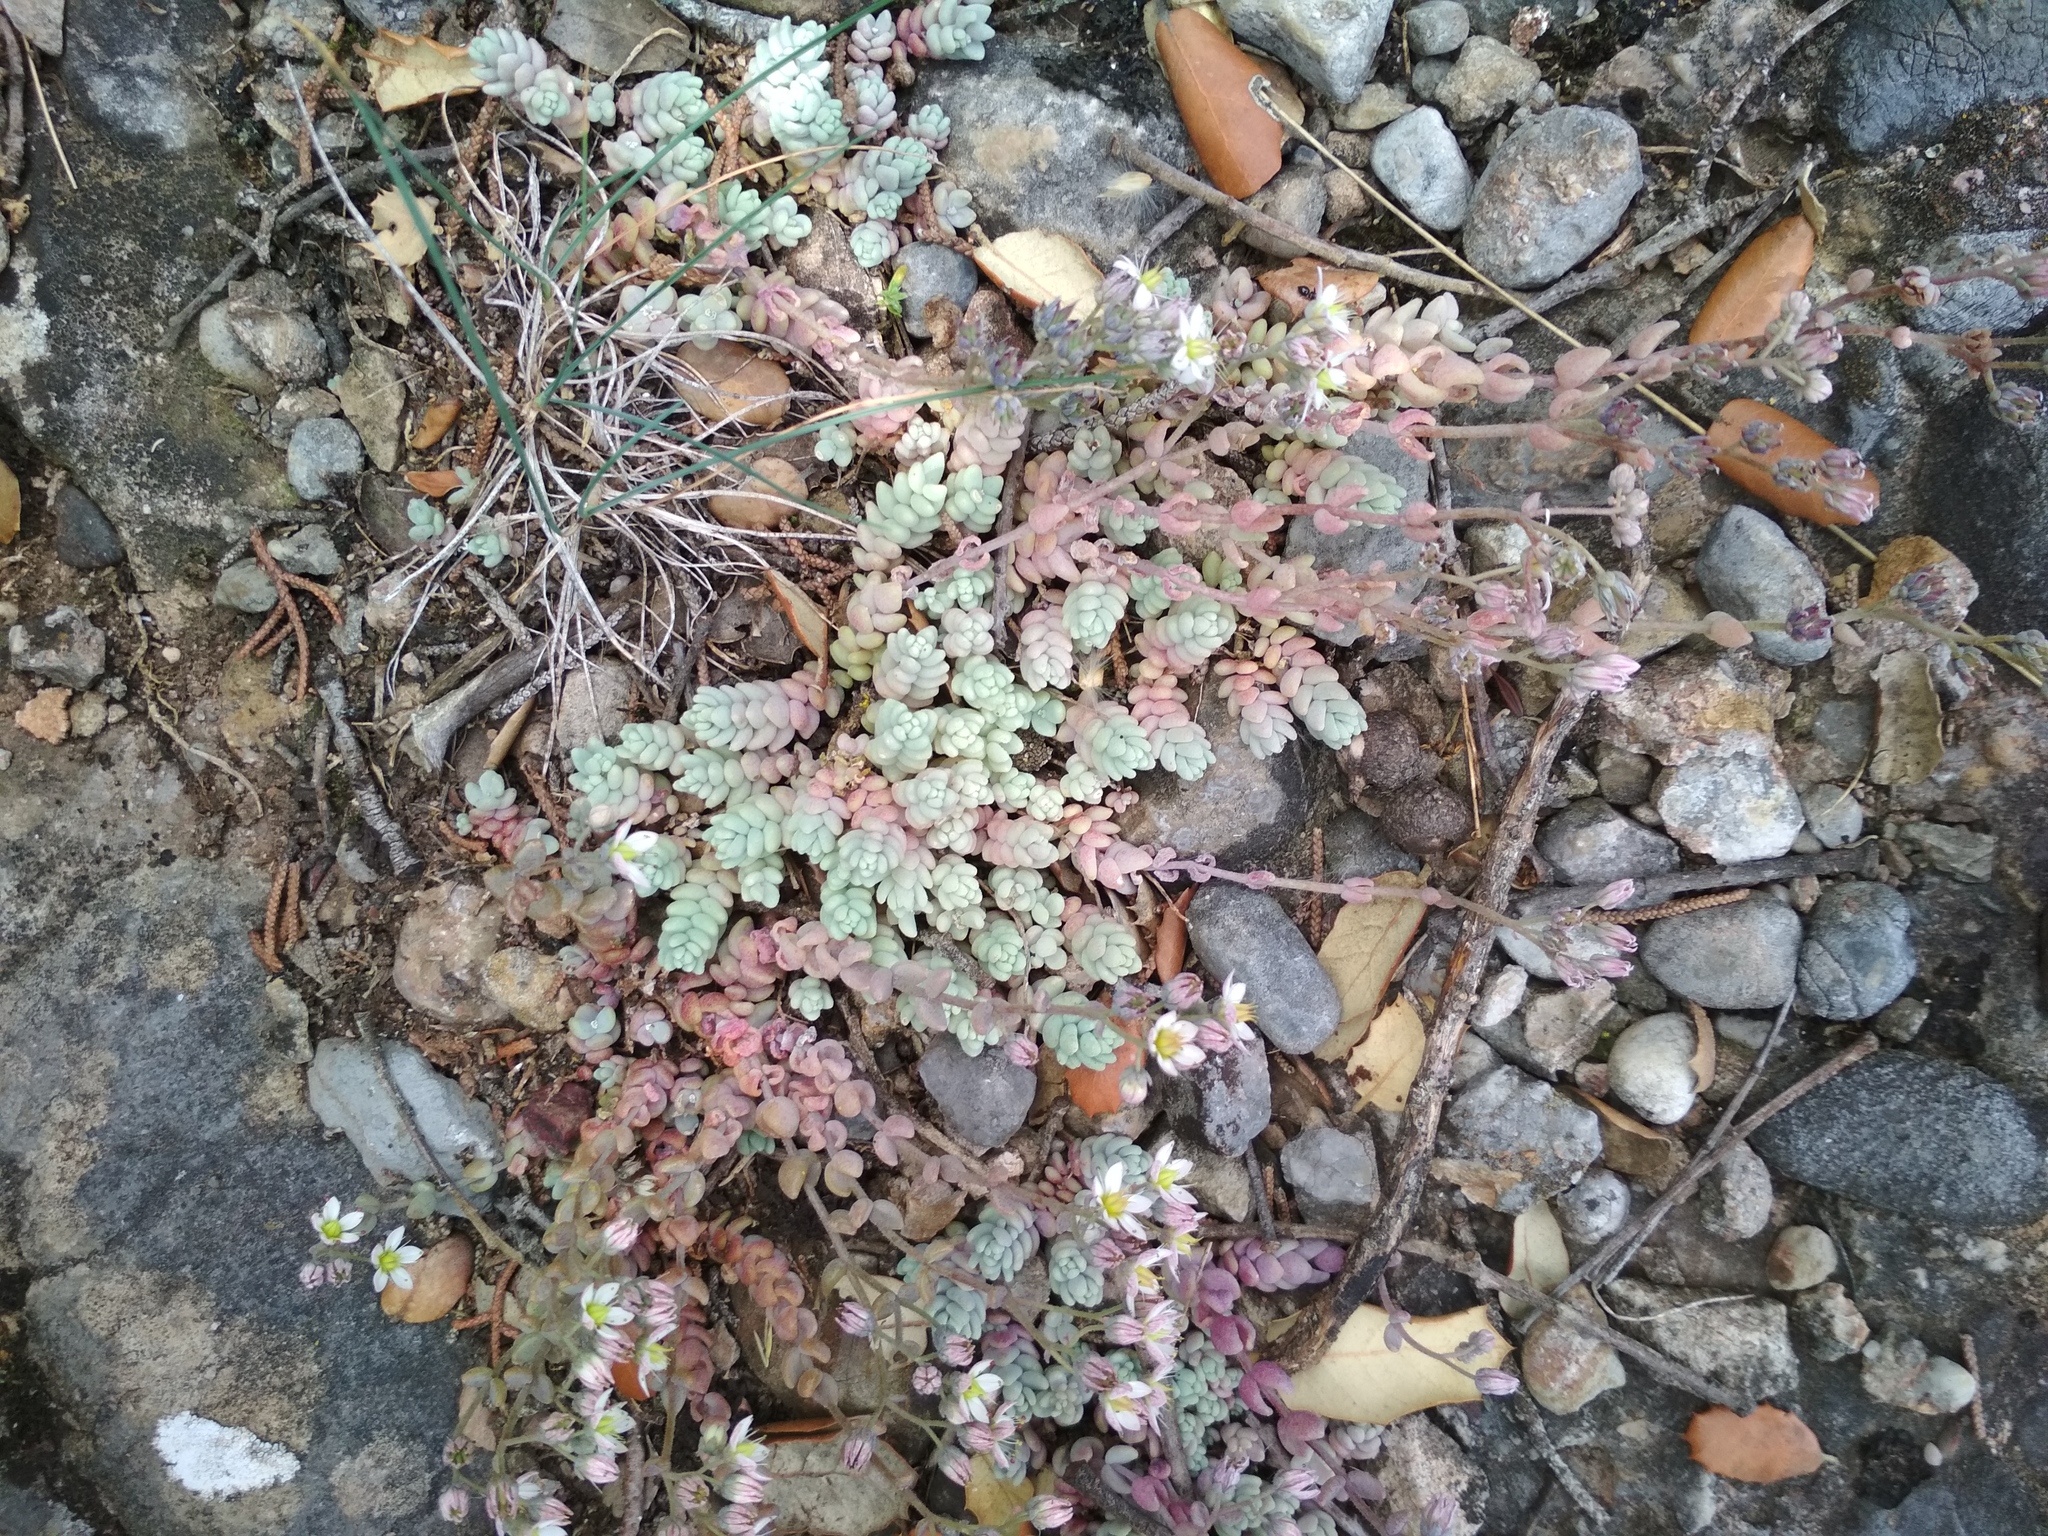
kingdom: Plantae
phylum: Tracheophyta
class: Magnoliopsida
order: Saxifragales
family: Crassulaceae
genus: Sedum
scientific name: Sedum dasyphyllum
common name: Thick-leaf stonecrop
